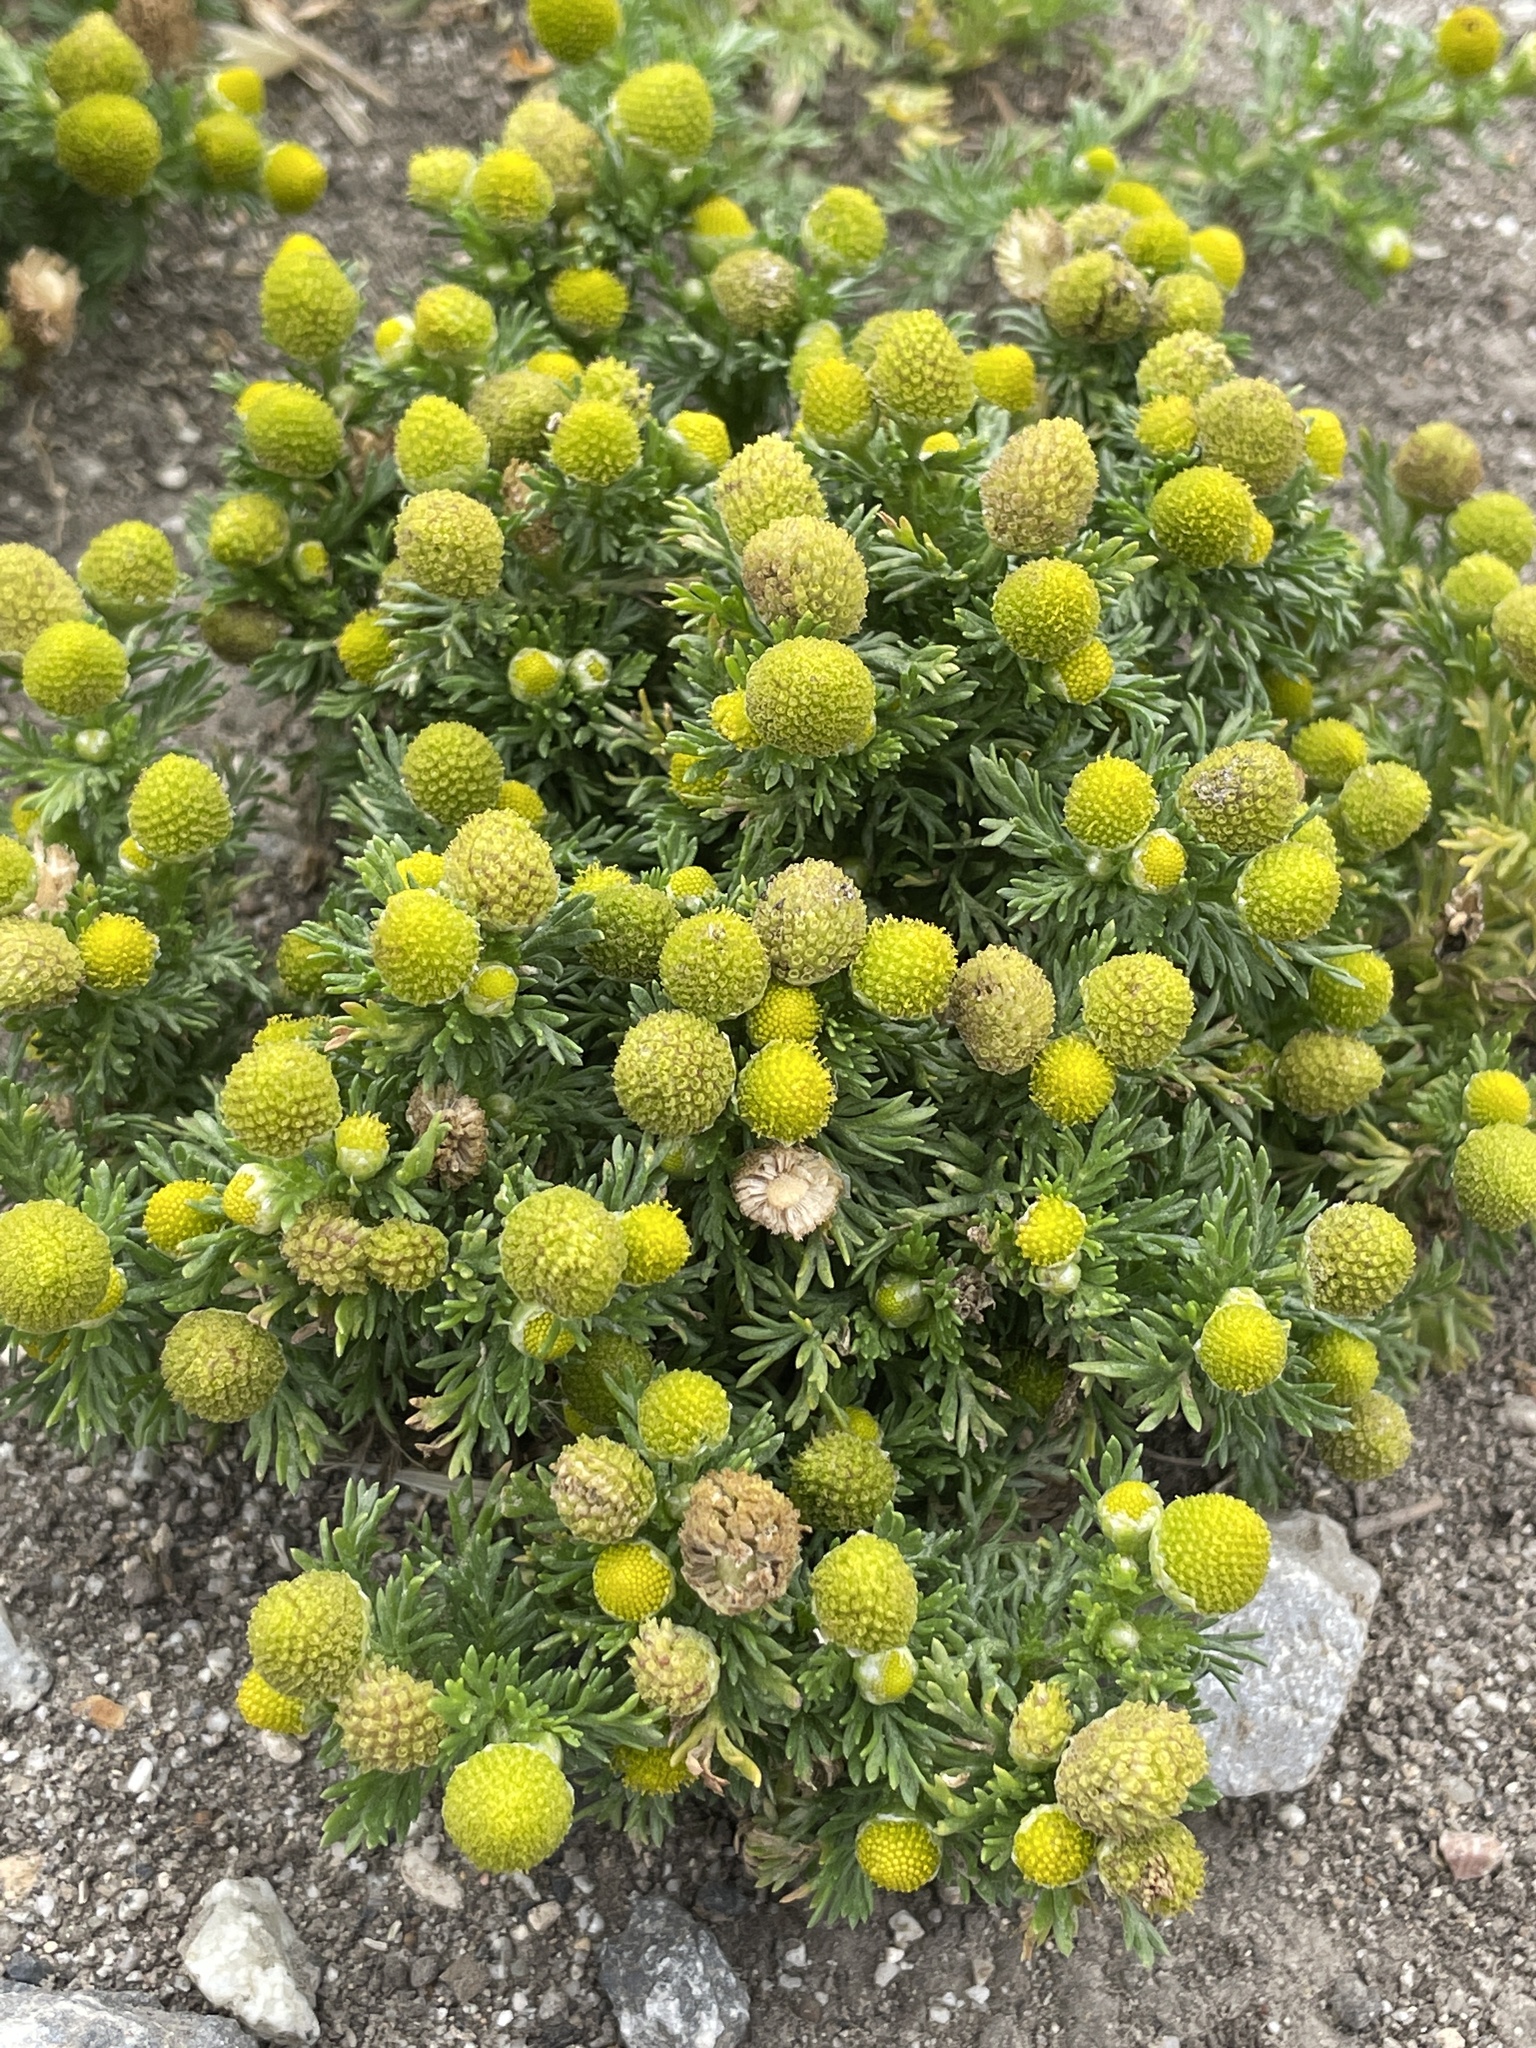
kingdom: Plantae
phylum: Tracheophyta
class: Magnoliopsida
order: Asterales
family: Asteraceae
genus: Matricaria
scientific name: Matricaria discoidea
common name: Disc mayweed
